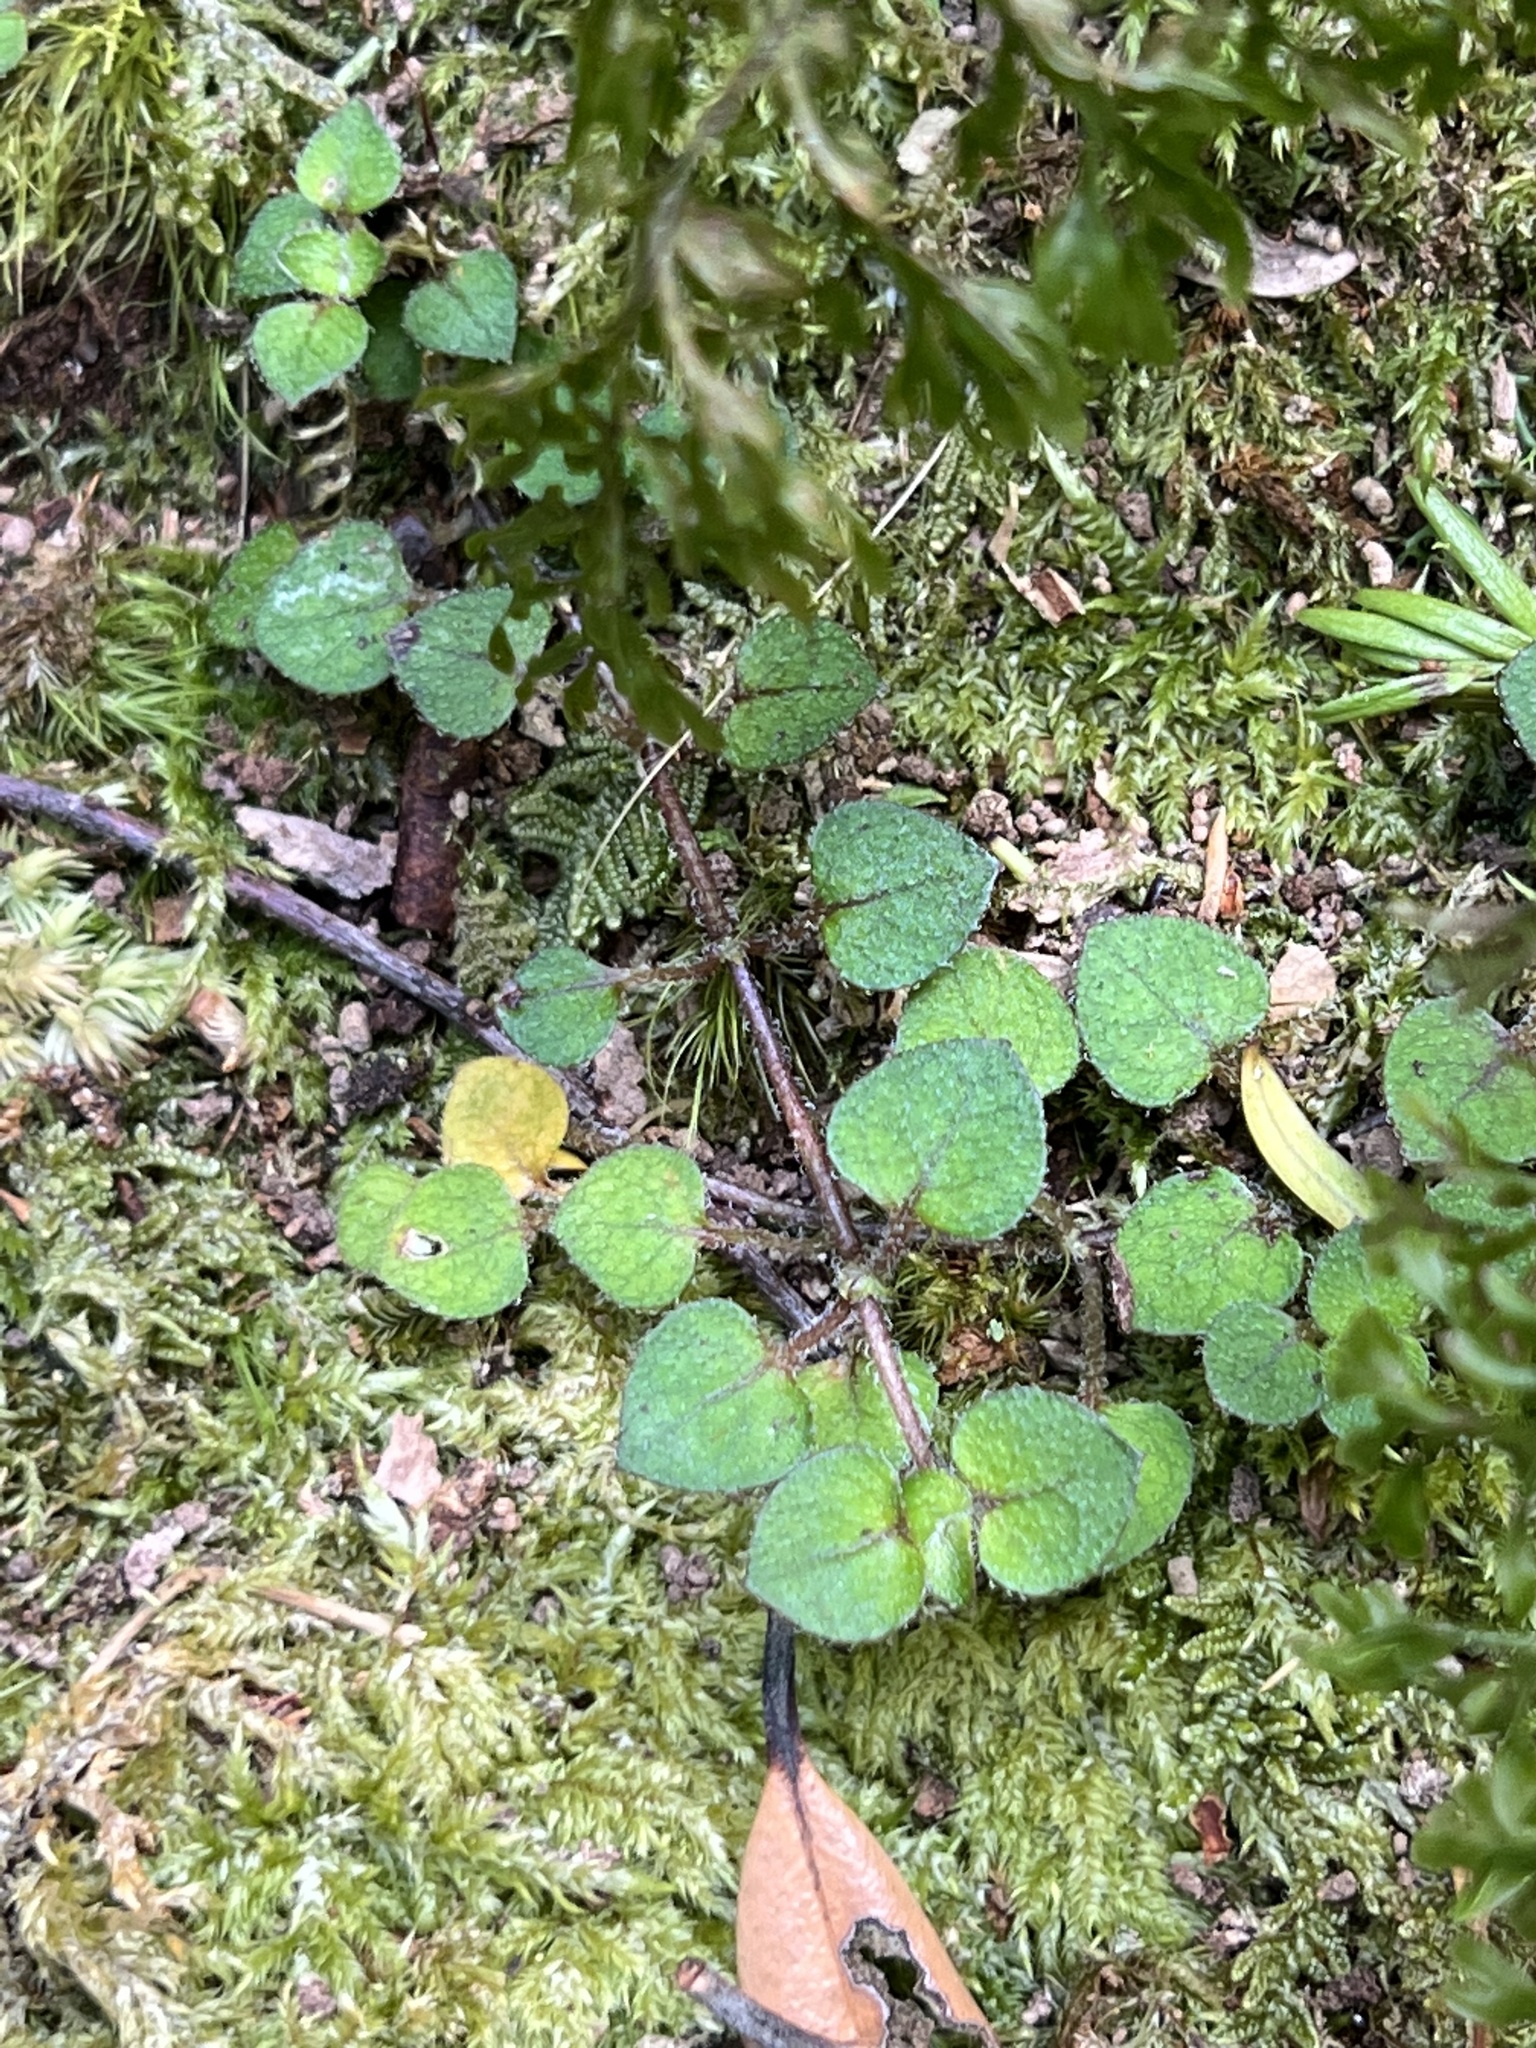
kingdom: Plantae
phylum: Tracheophyta
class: Magnoliopsida
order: Gentianales
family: Rubiaceae
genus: Nertera
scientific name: Nertera dichondrifolia
